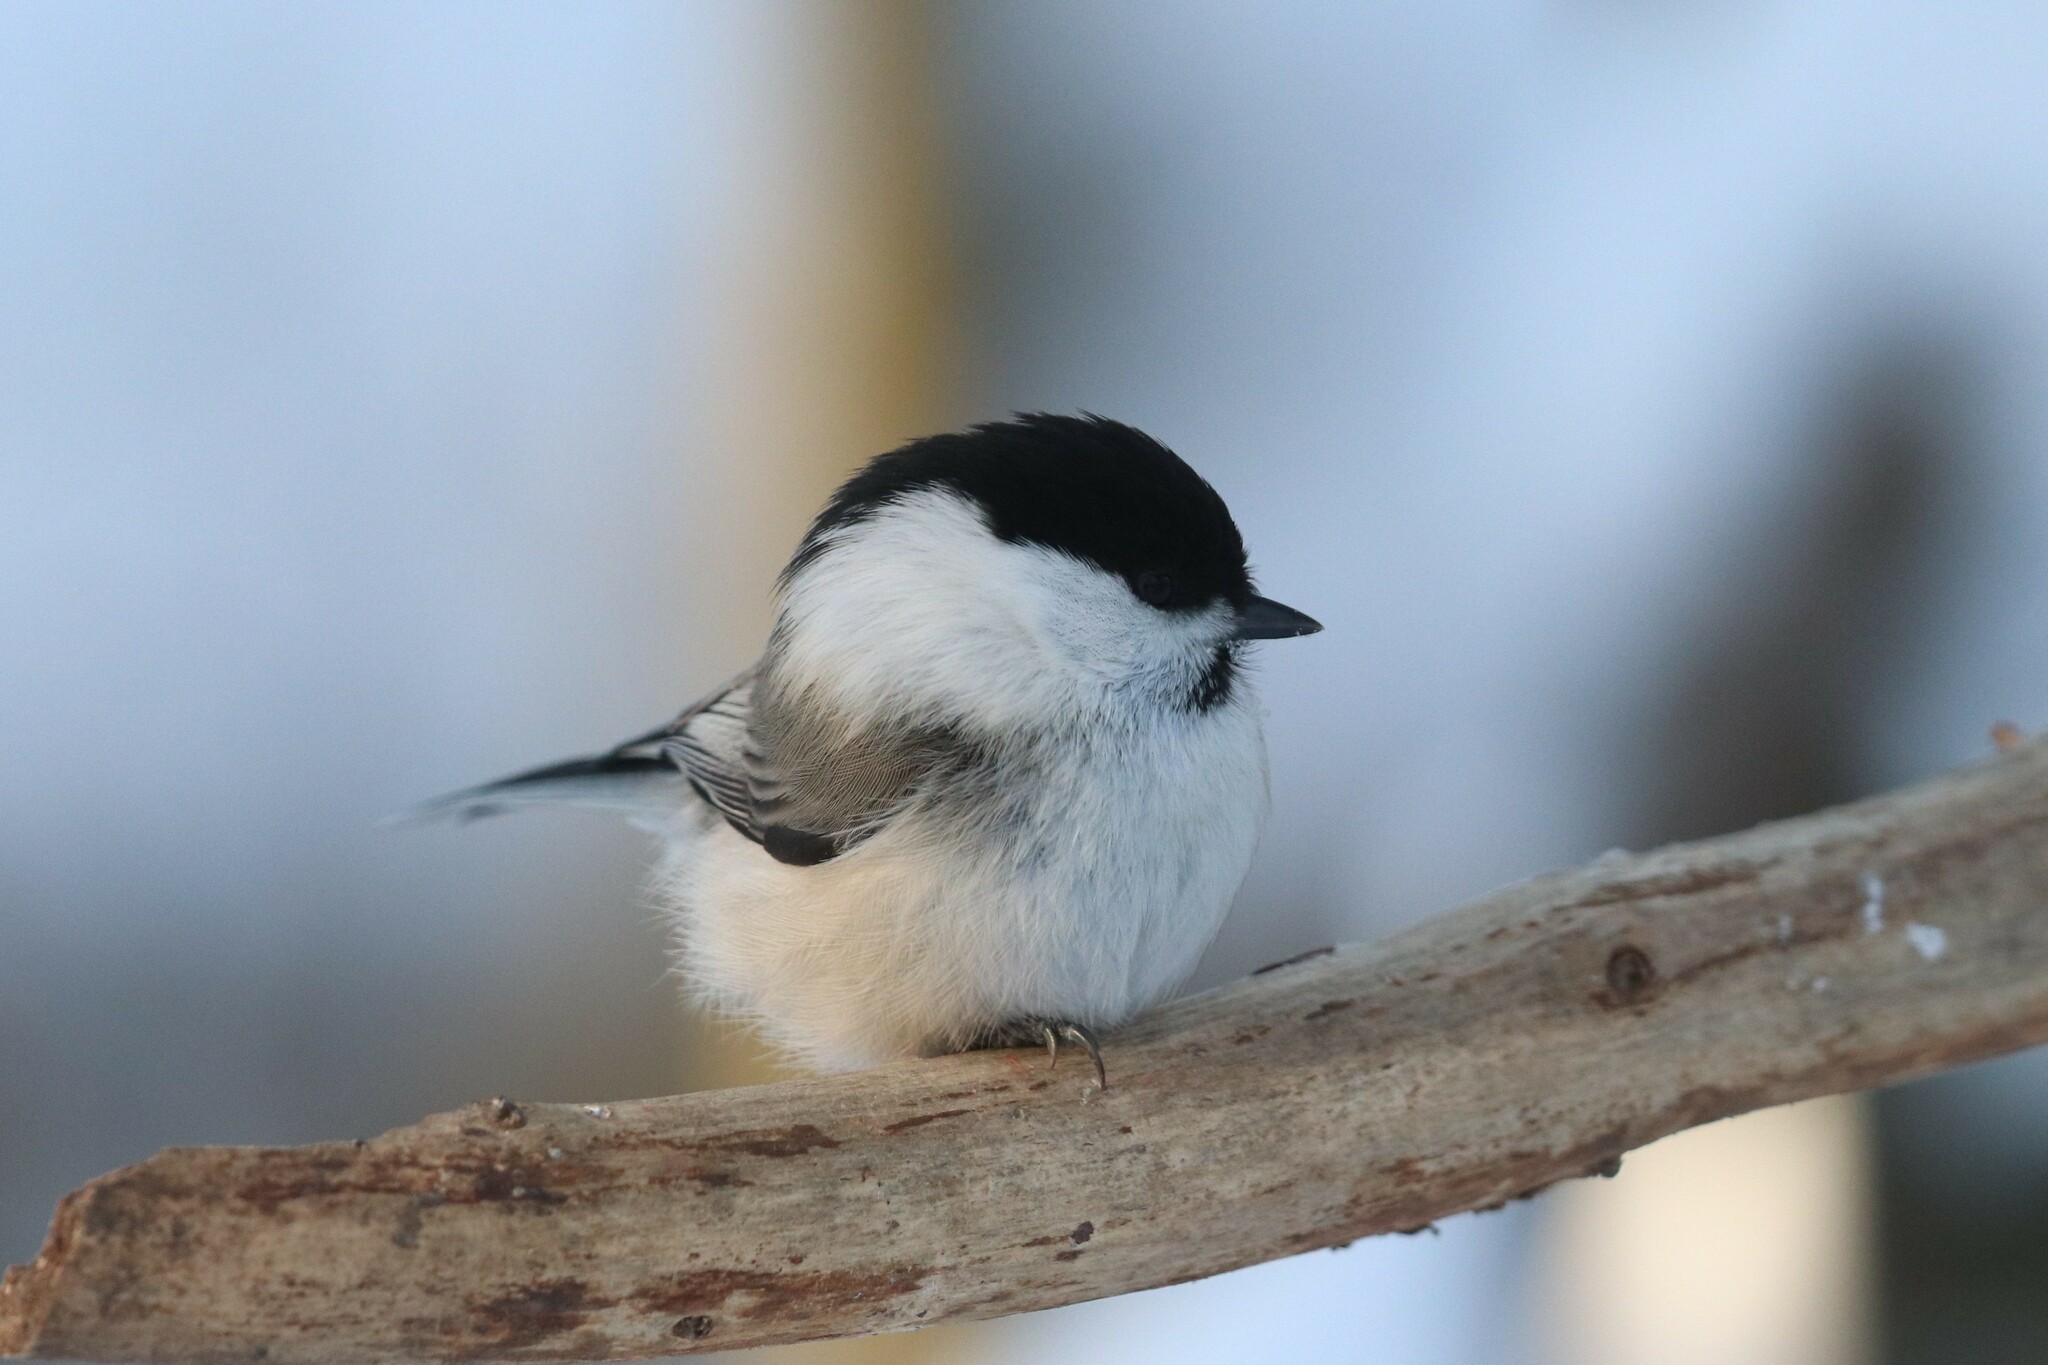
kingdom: Animalia
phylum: Chordata
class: Aves
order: Passeriformes
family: Paridae
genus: Poecile
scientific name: Poecile montanus
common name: Willow tit
